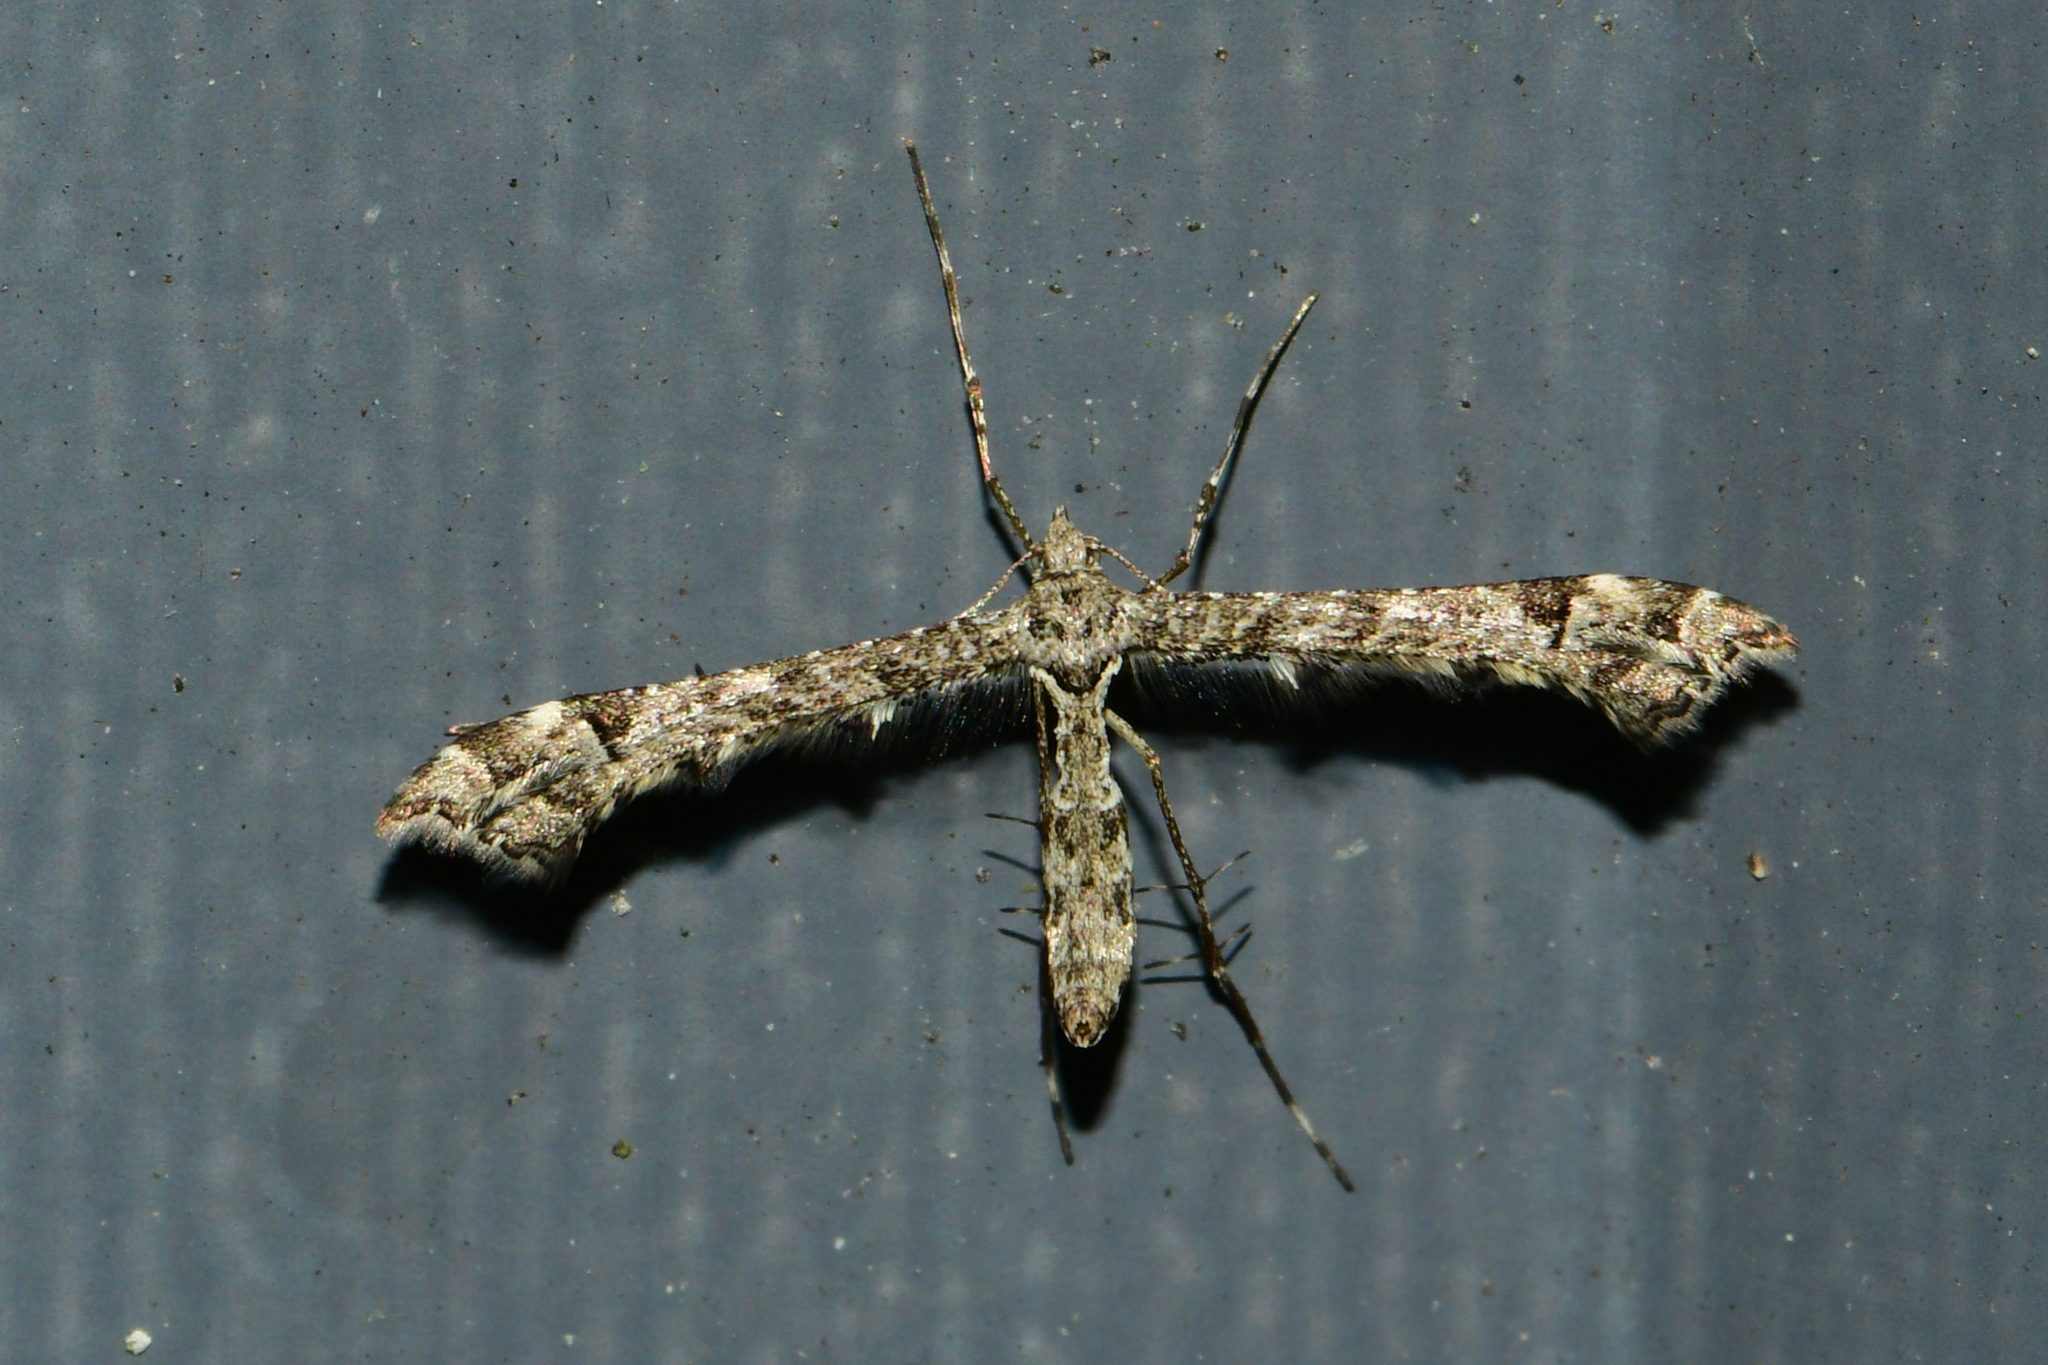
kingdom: Animalia
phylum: Arthropoda
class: Insecta
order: Lepidoptera
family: Pterophoridae
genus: Amblyptilia
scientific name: Amblyptilia punctidactyla
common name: Brindled plume
